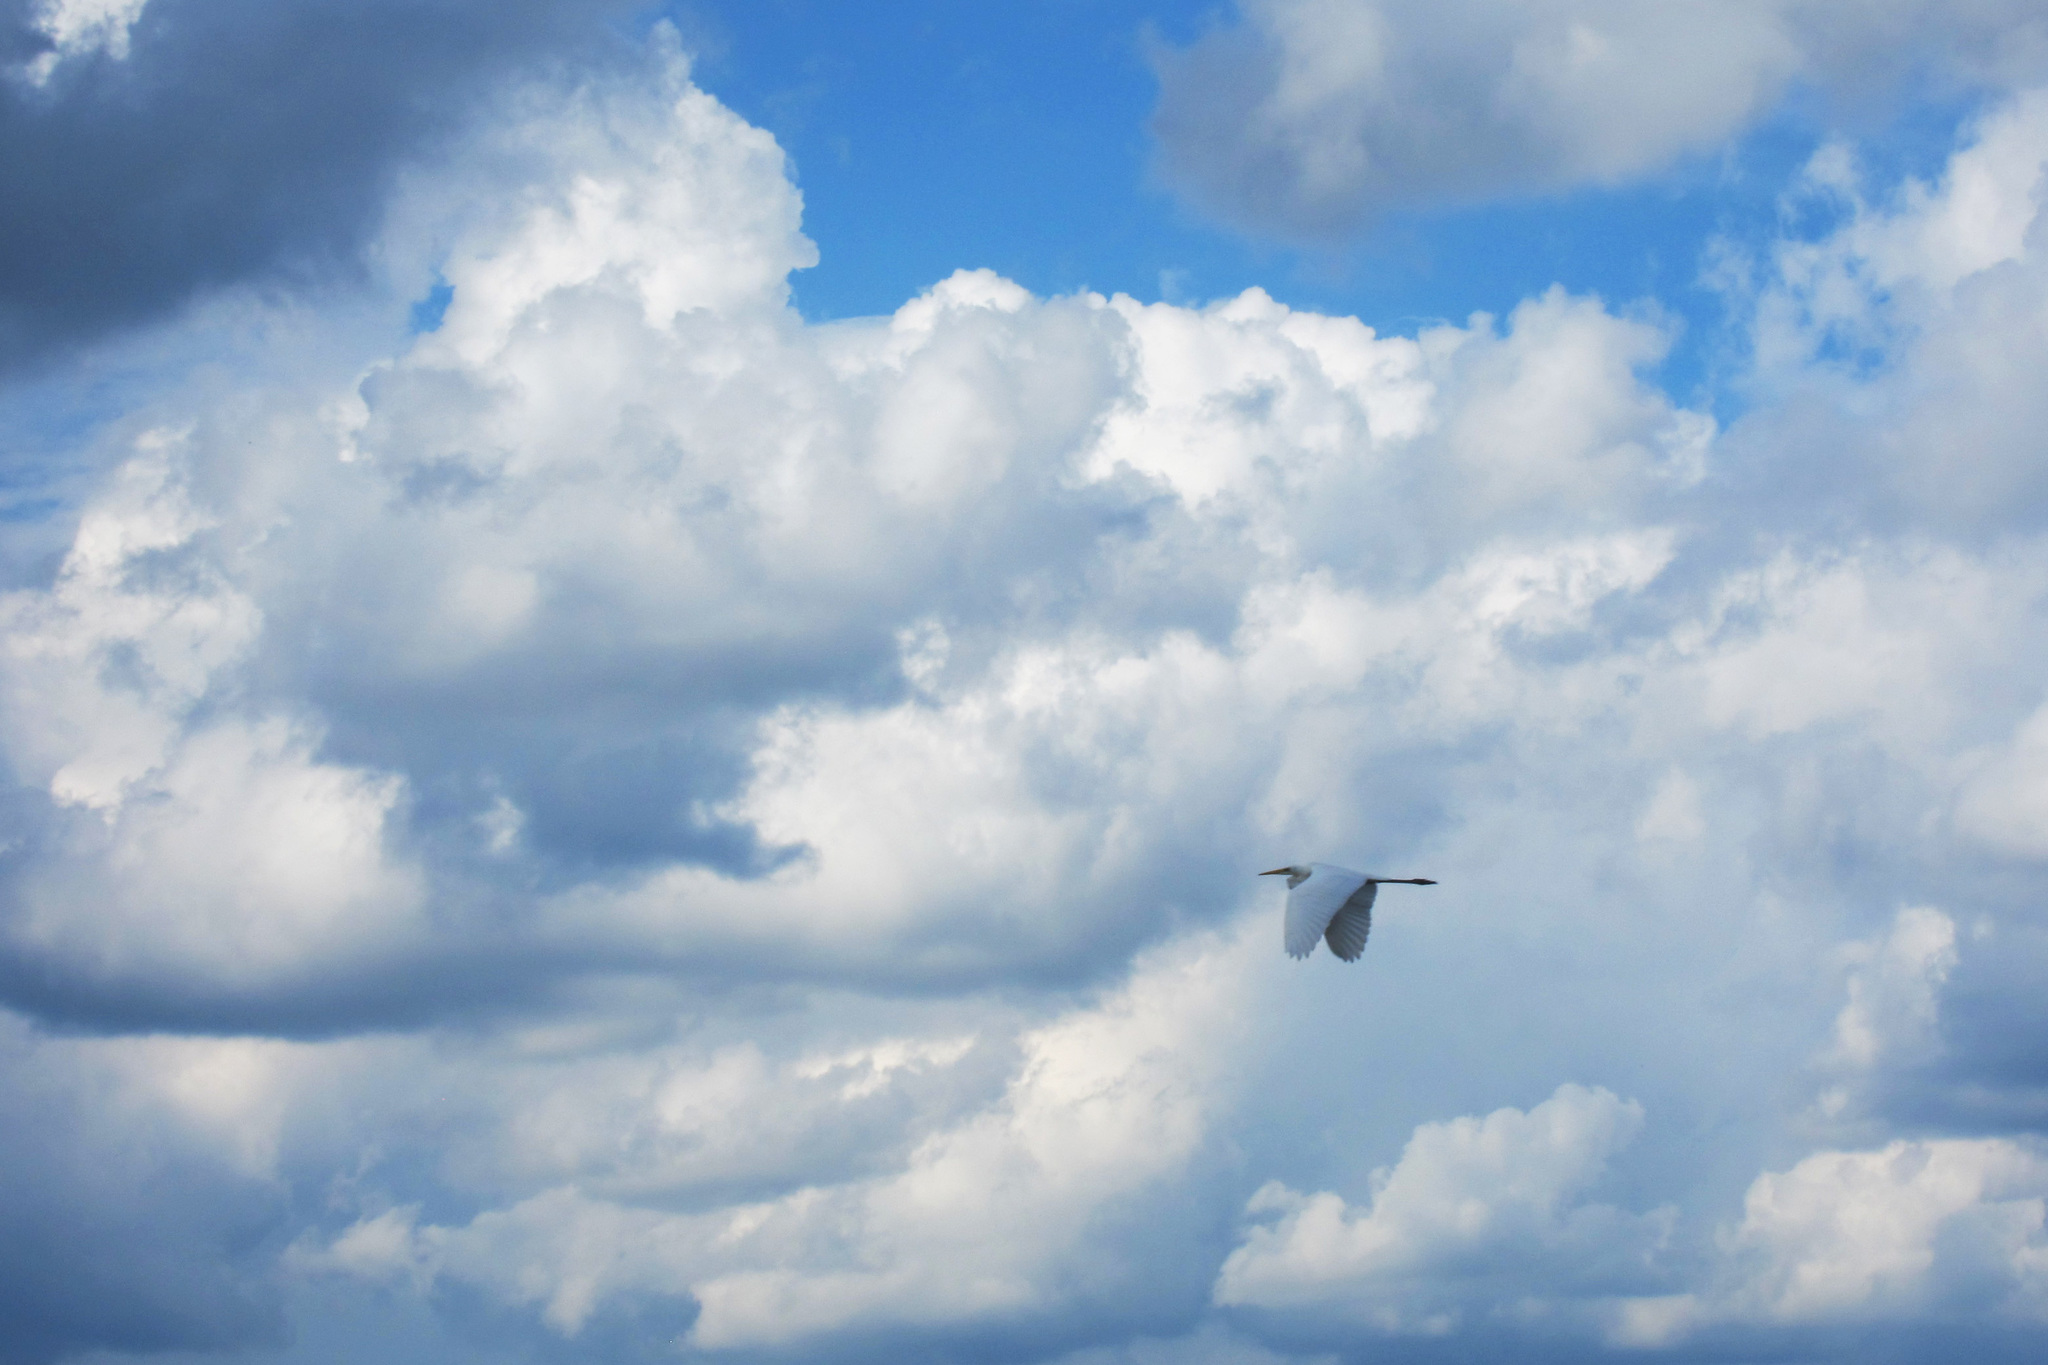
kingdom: Animalia
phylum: Chordata
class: Aves
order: Pelecaniformes
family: Ardeidae
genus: Ardea
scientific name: Ardea alba
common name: Great egret
